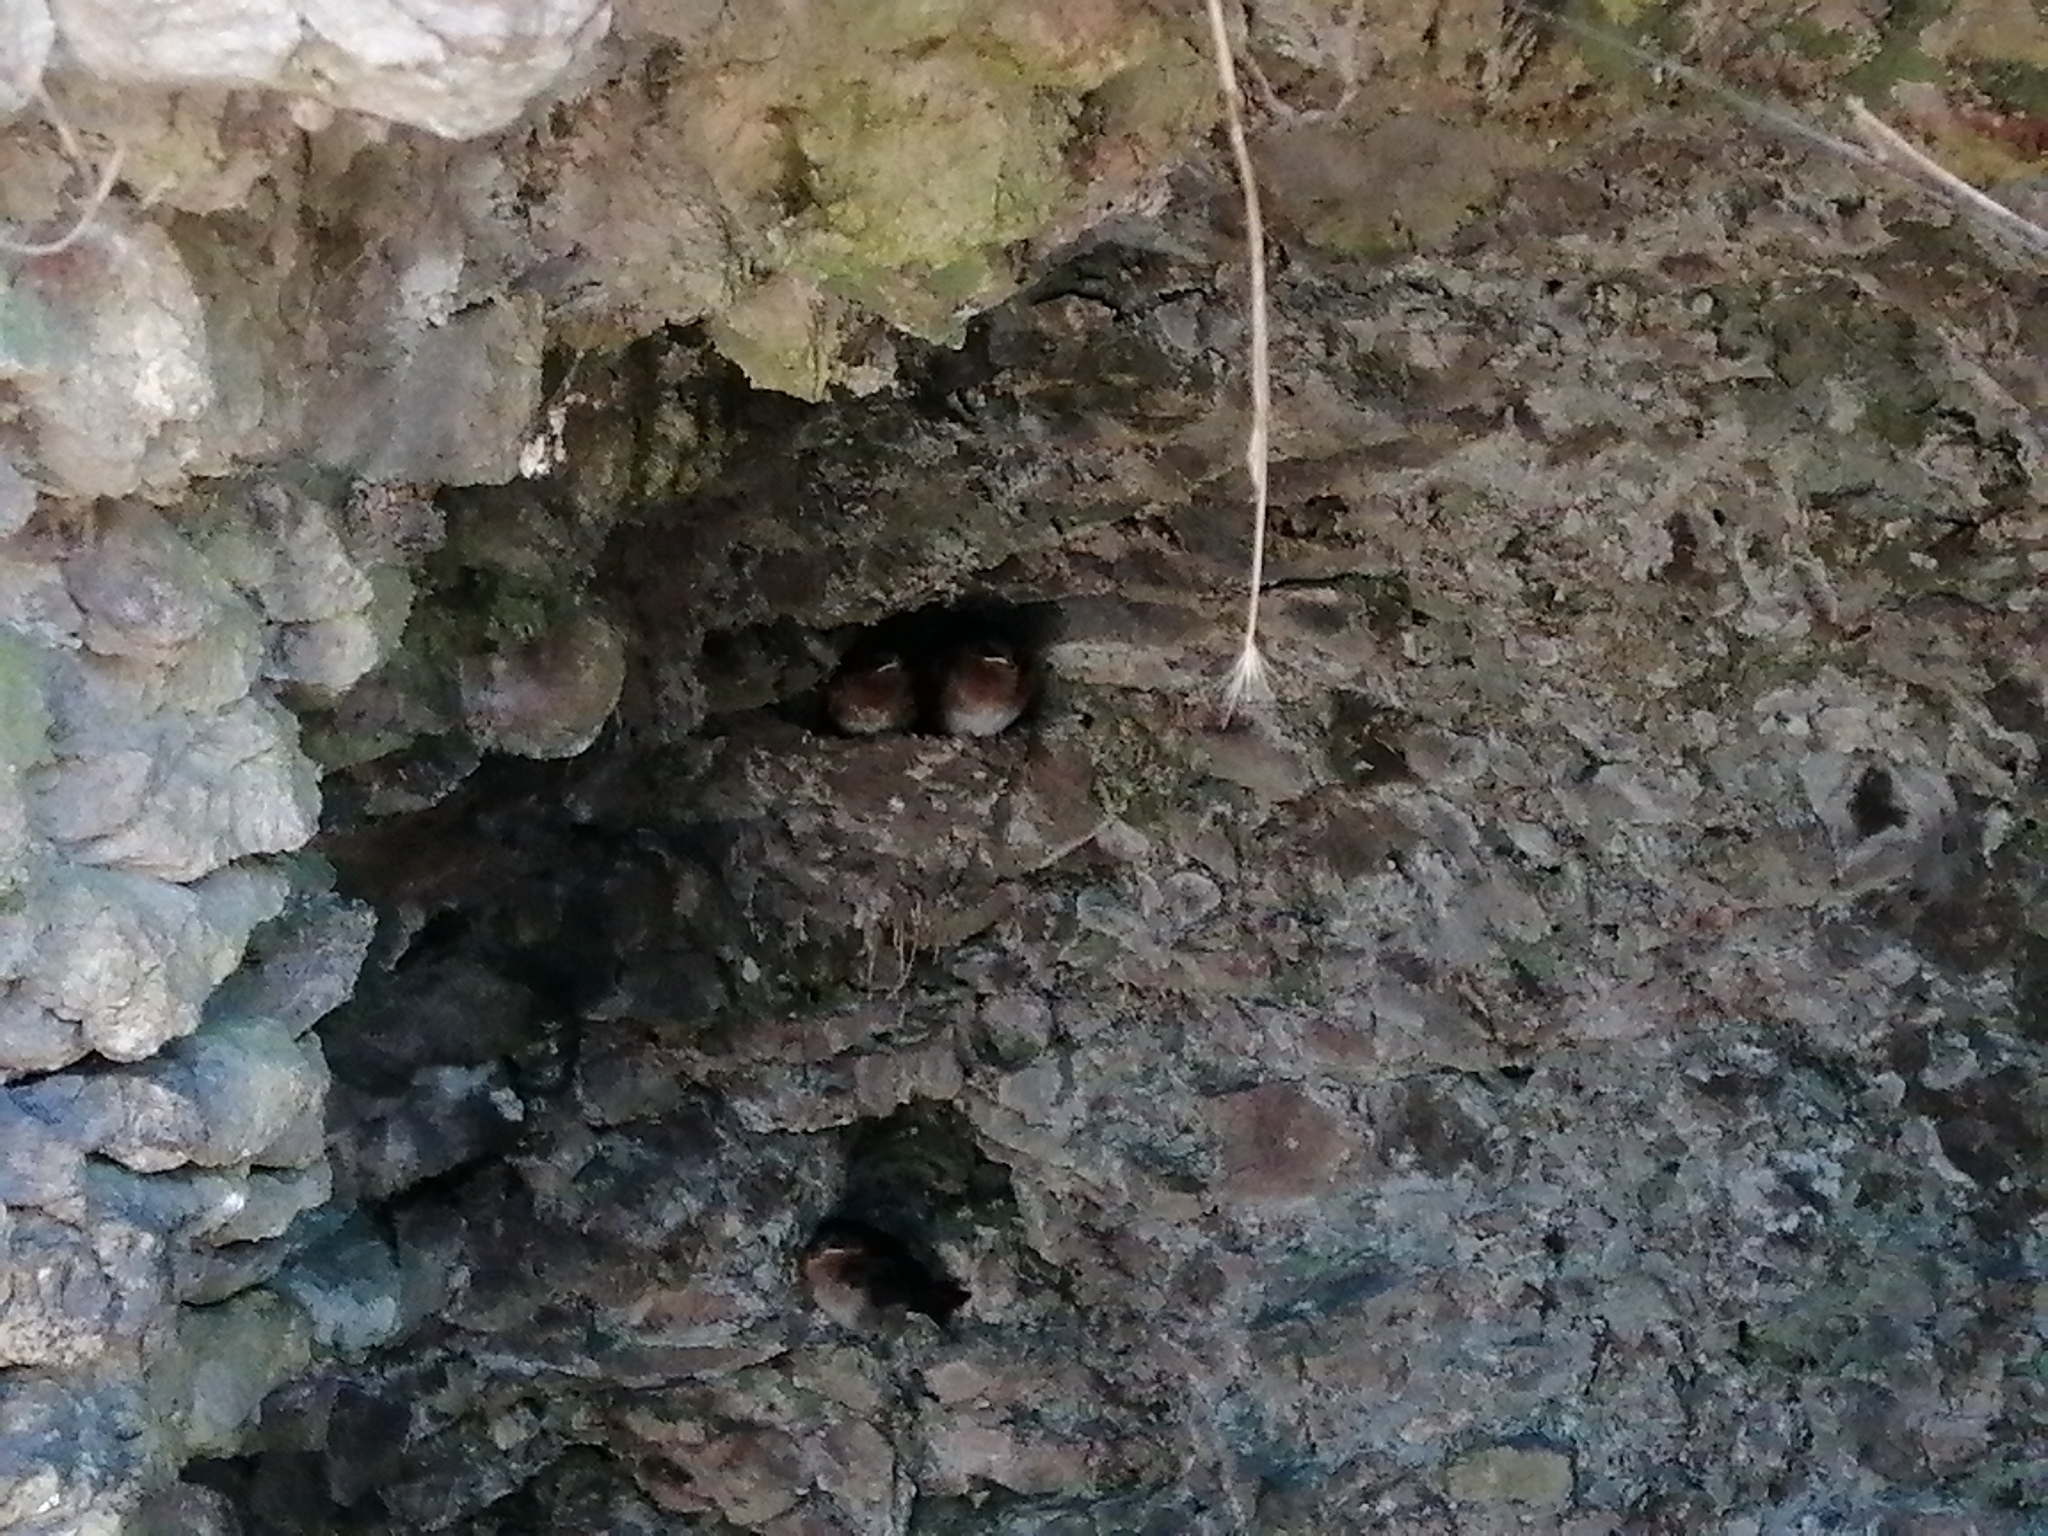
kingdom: Animalia
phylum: Chordata
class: Aves
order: Passeriformes
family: Hirundinidae
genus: Hirundo
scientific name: Hirundo neoxena
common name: Welcome swallow
